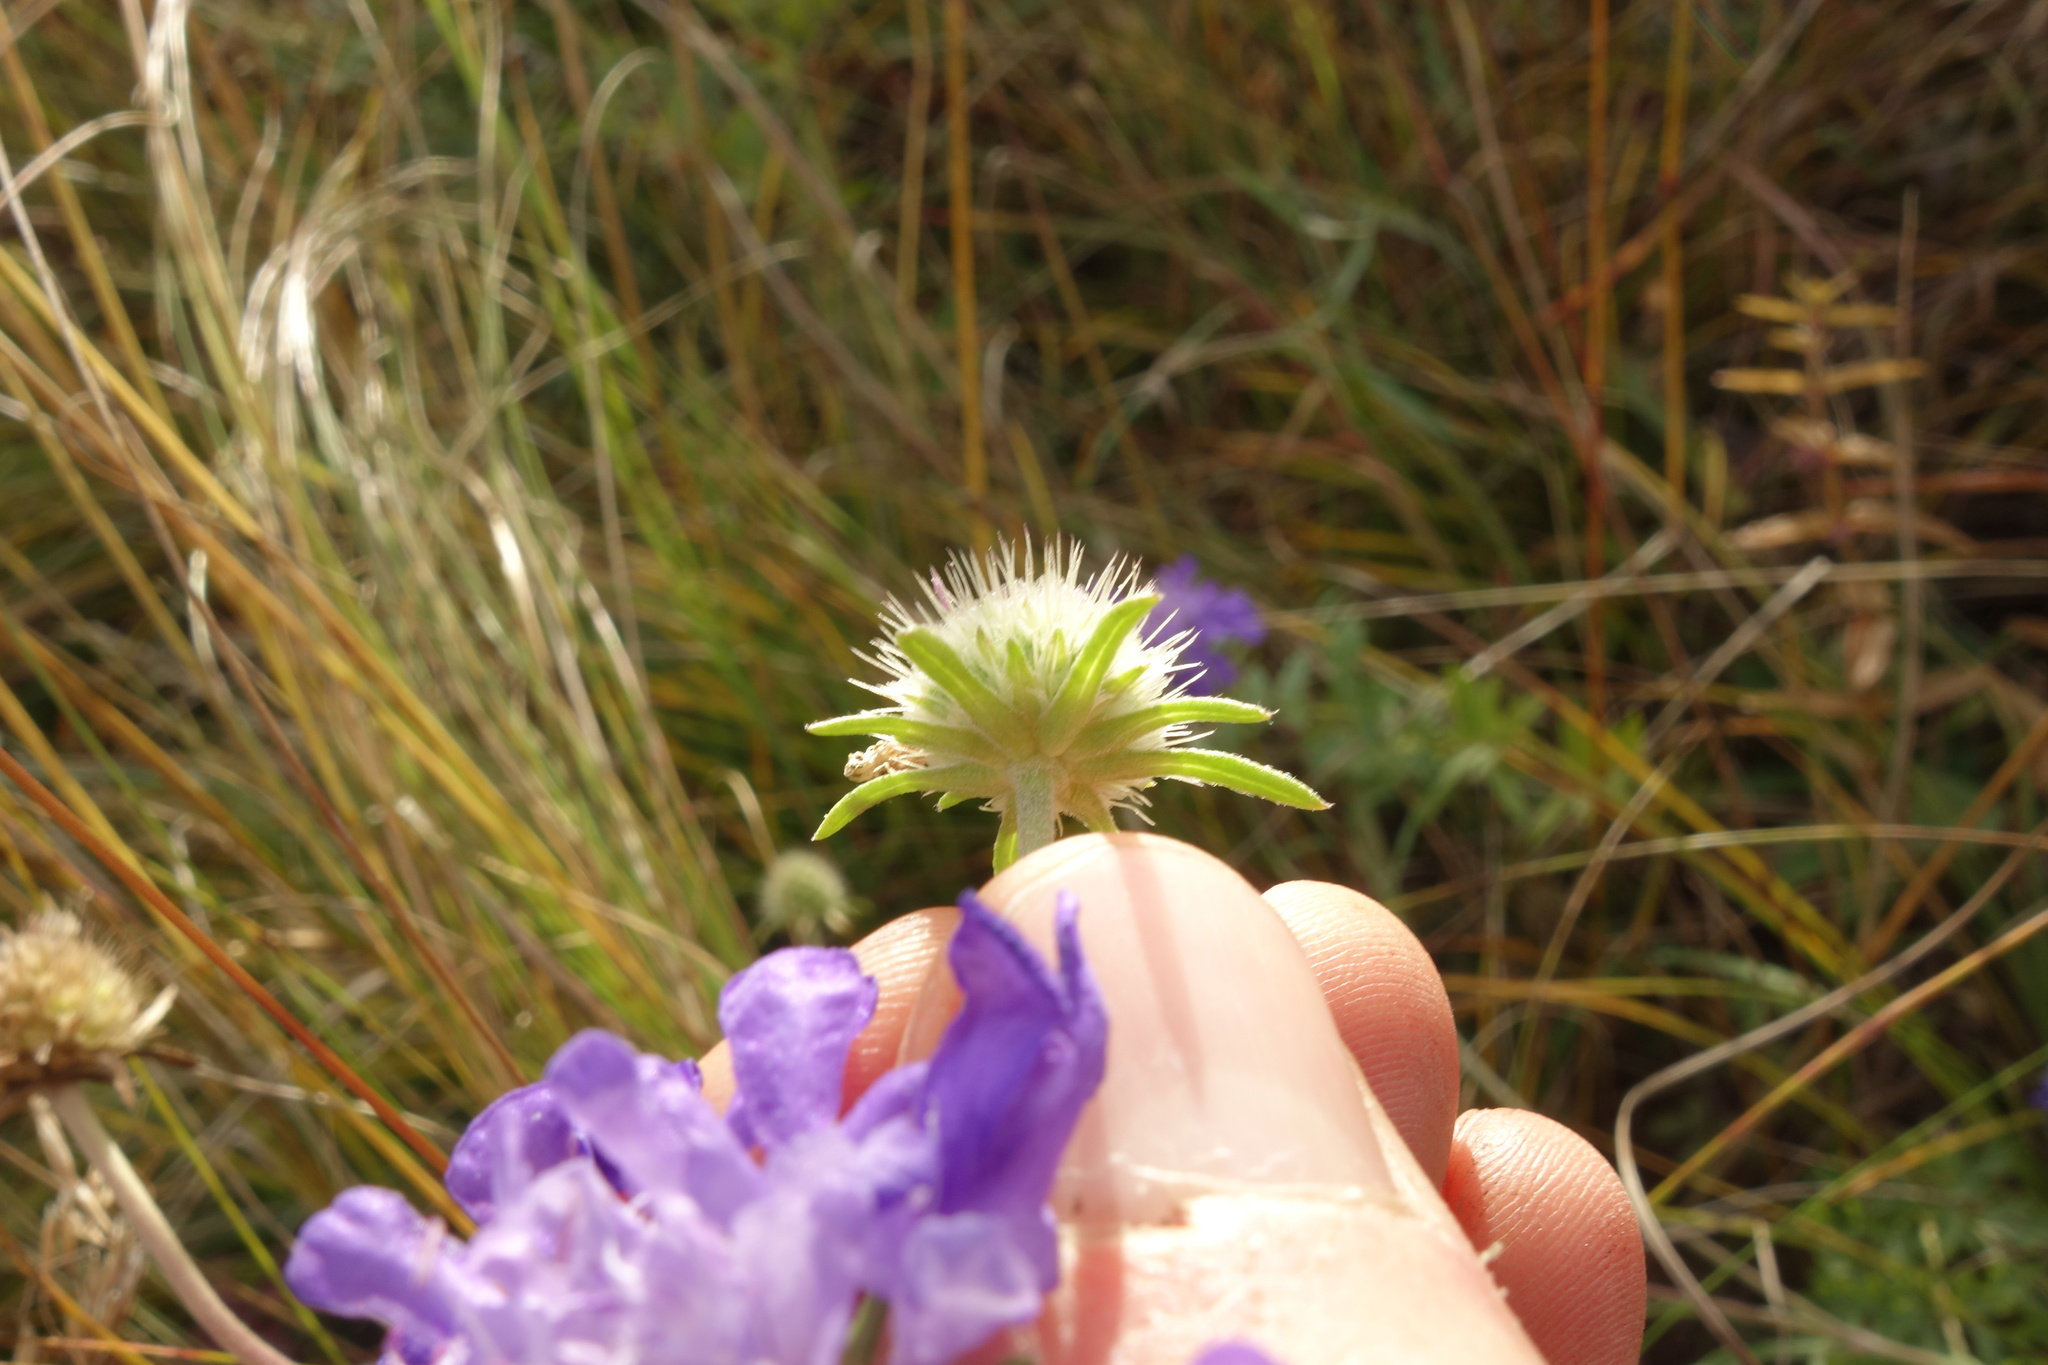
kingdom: Plantae
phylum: Tracheophyta
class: Magnoliopsida
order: Dipsacales
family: Caprifoliaceae
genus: Scabiosa
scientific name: Scabiosa comosa
